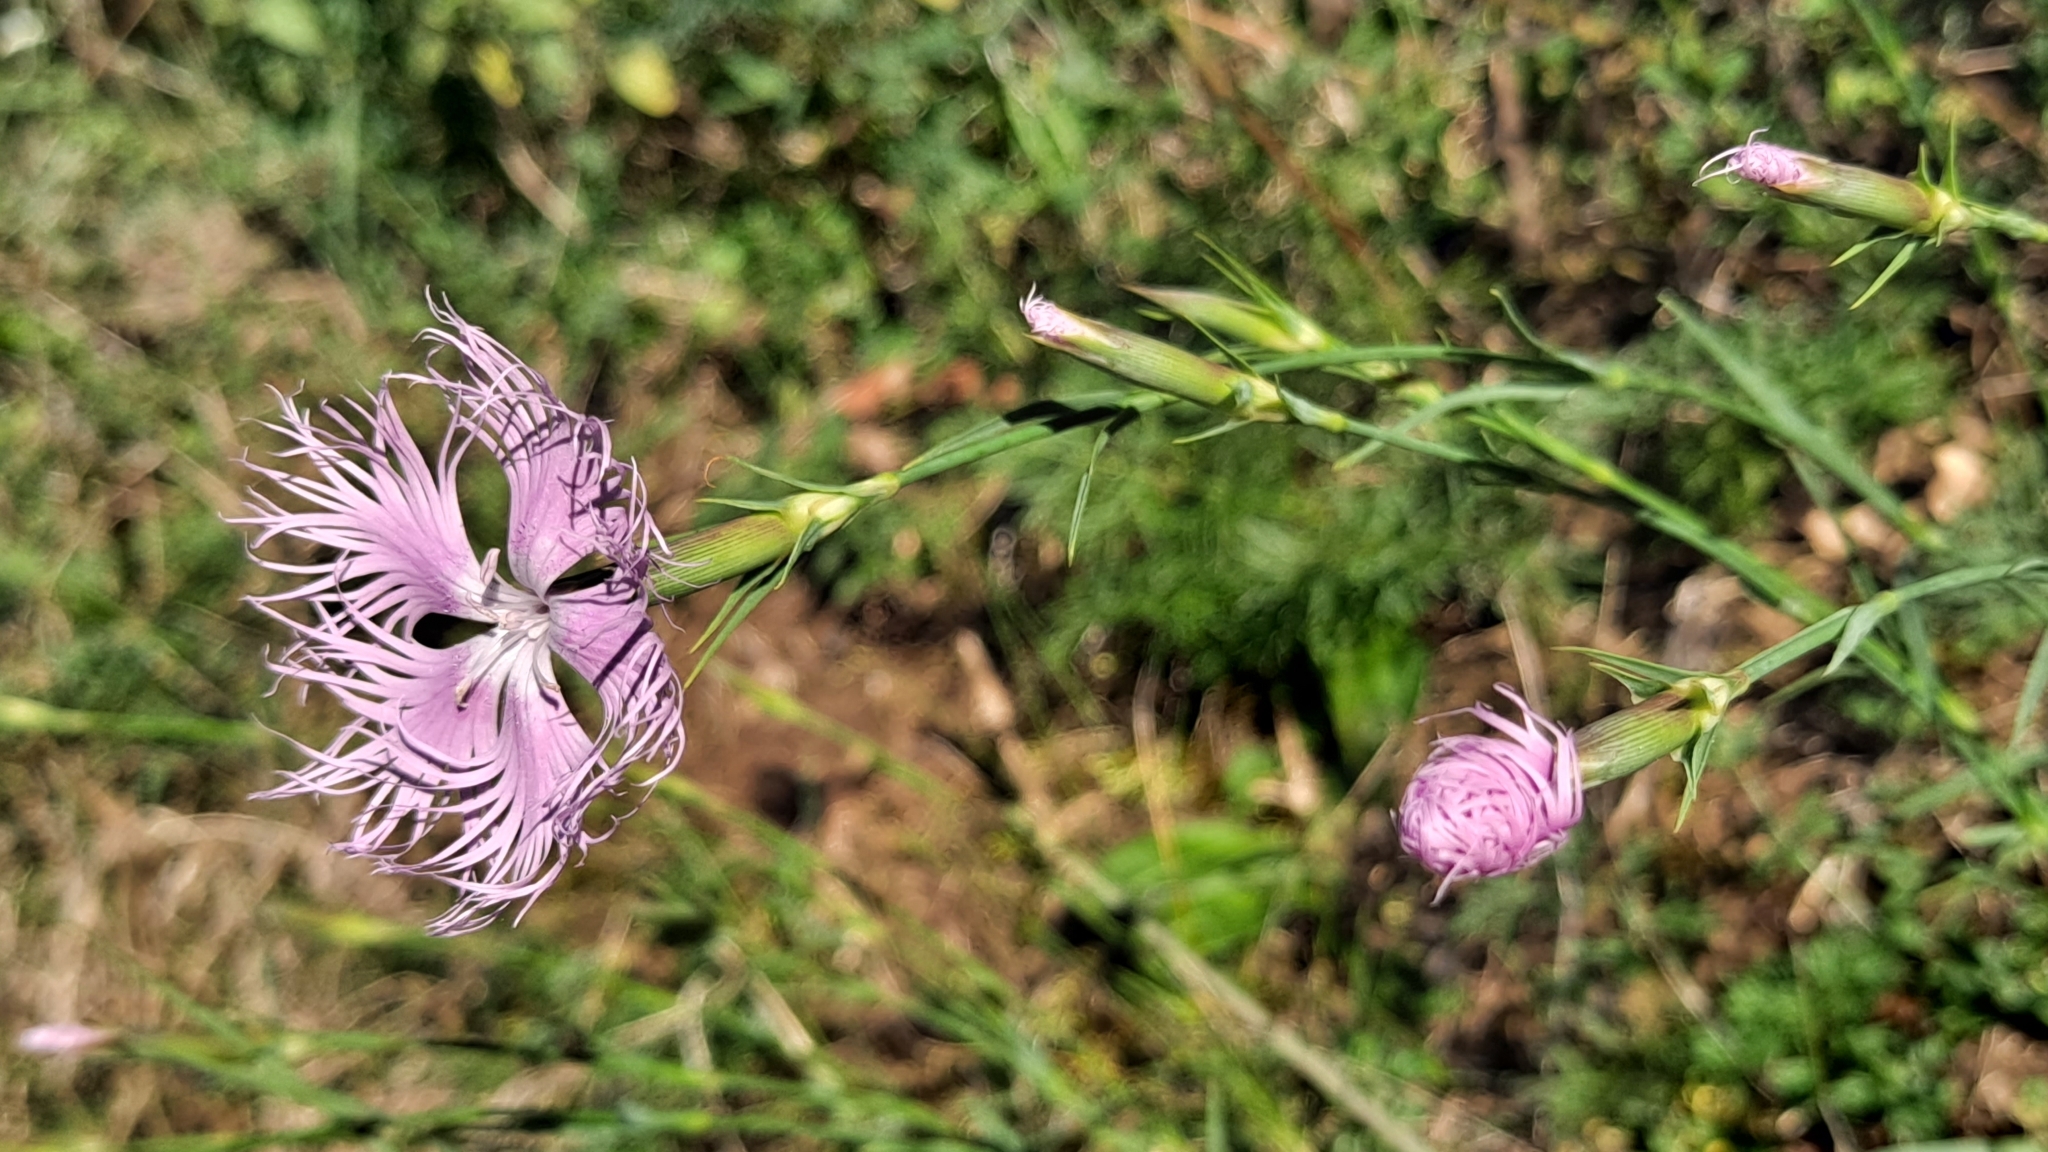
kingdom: Plantae
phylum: Tracheophyta
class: Magnoliopsida
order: Caryophyllales
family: Caryophyllaceae
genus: Dianthus
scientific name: Dianthus hyssopifolius
